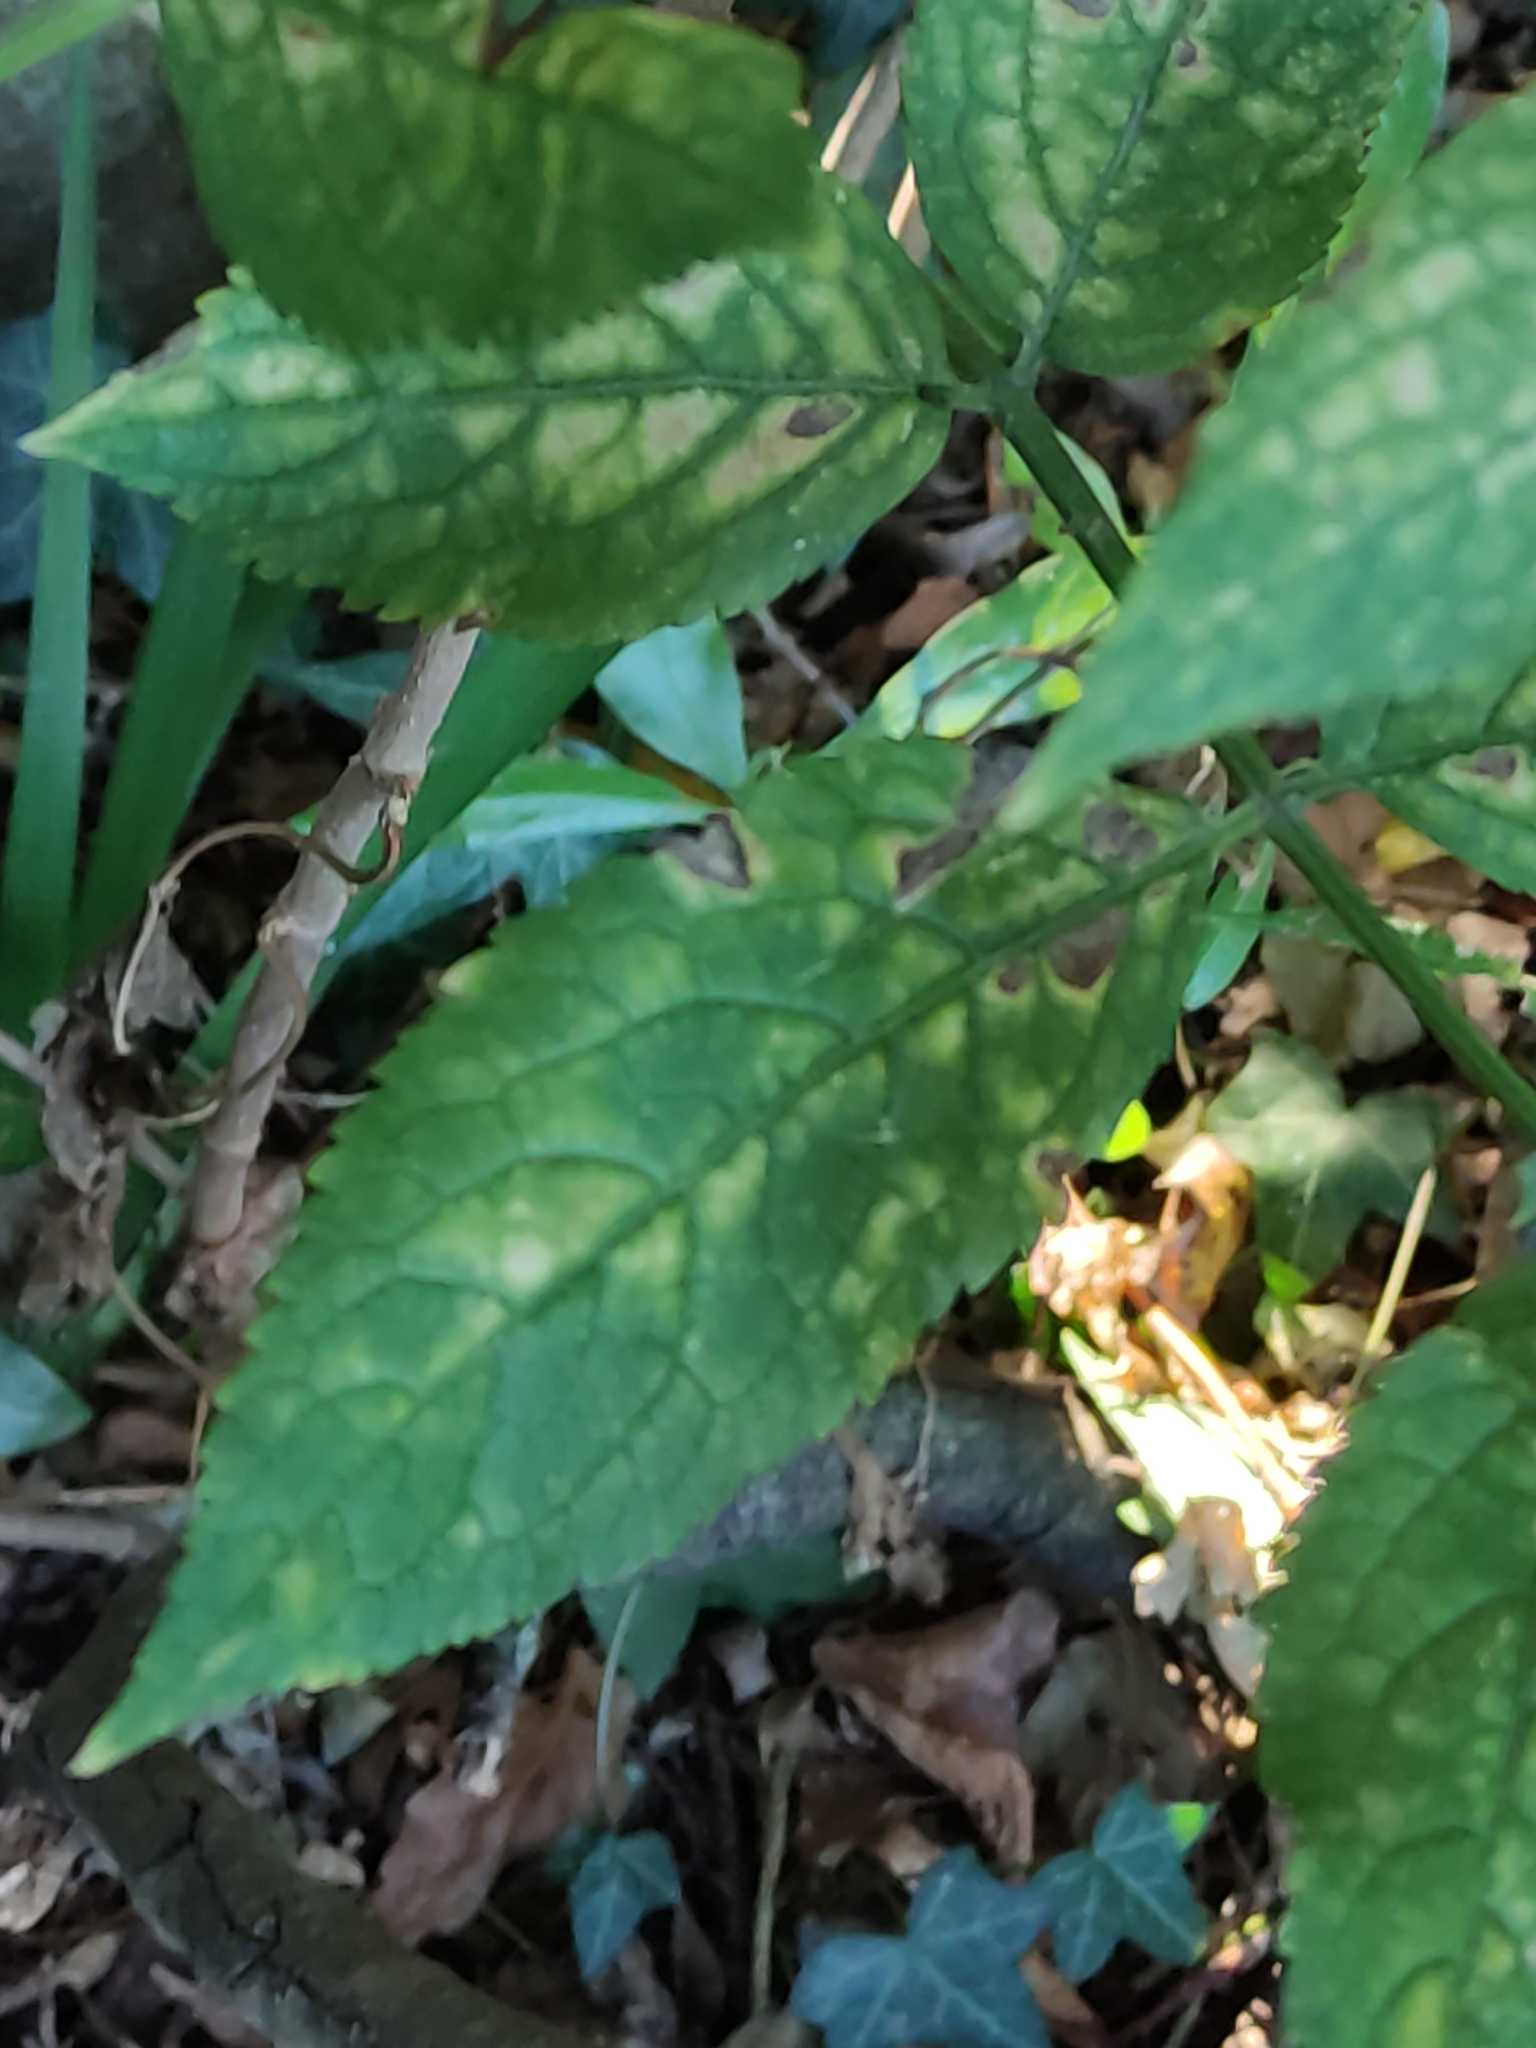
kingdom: Plantae
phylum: Tracheophyta
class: Magnoliopsida
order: Dipsacales
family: Viburnaceae
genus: Sambucus
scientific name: Sambucus nigra
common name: Elder
